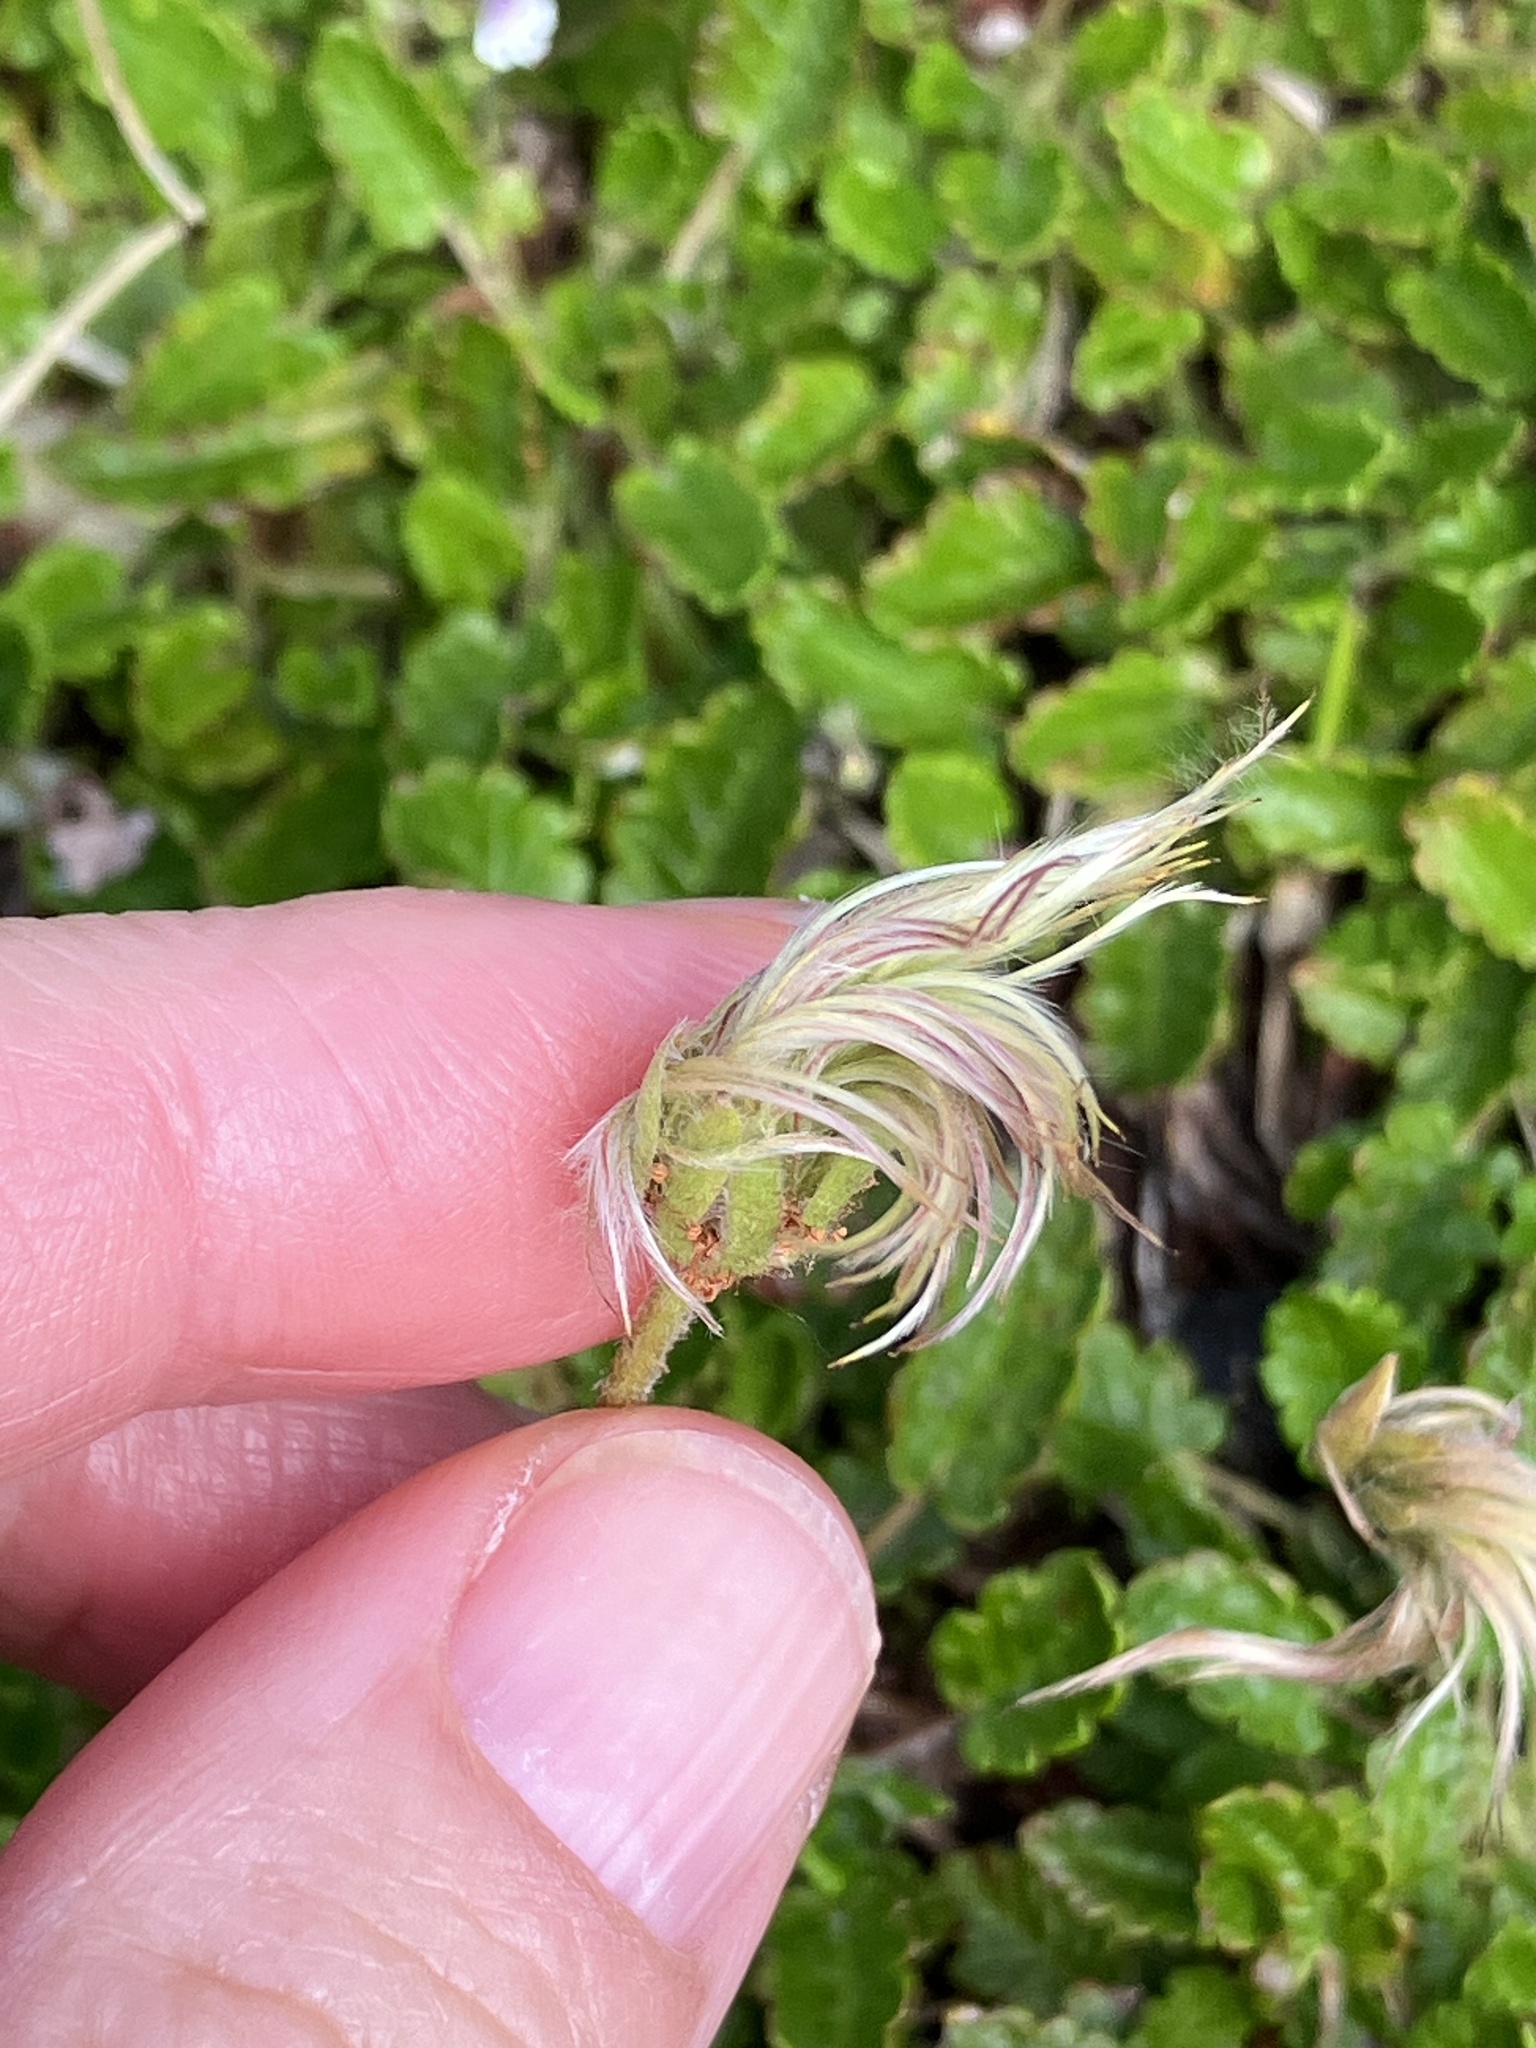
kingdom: Plantae
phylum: Tracheophyta
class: Magnoliopsida
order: Rosales
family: Rosaceae
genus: Dryas
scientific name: Dryas octopetala
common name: Eight-petal mountain-avens
